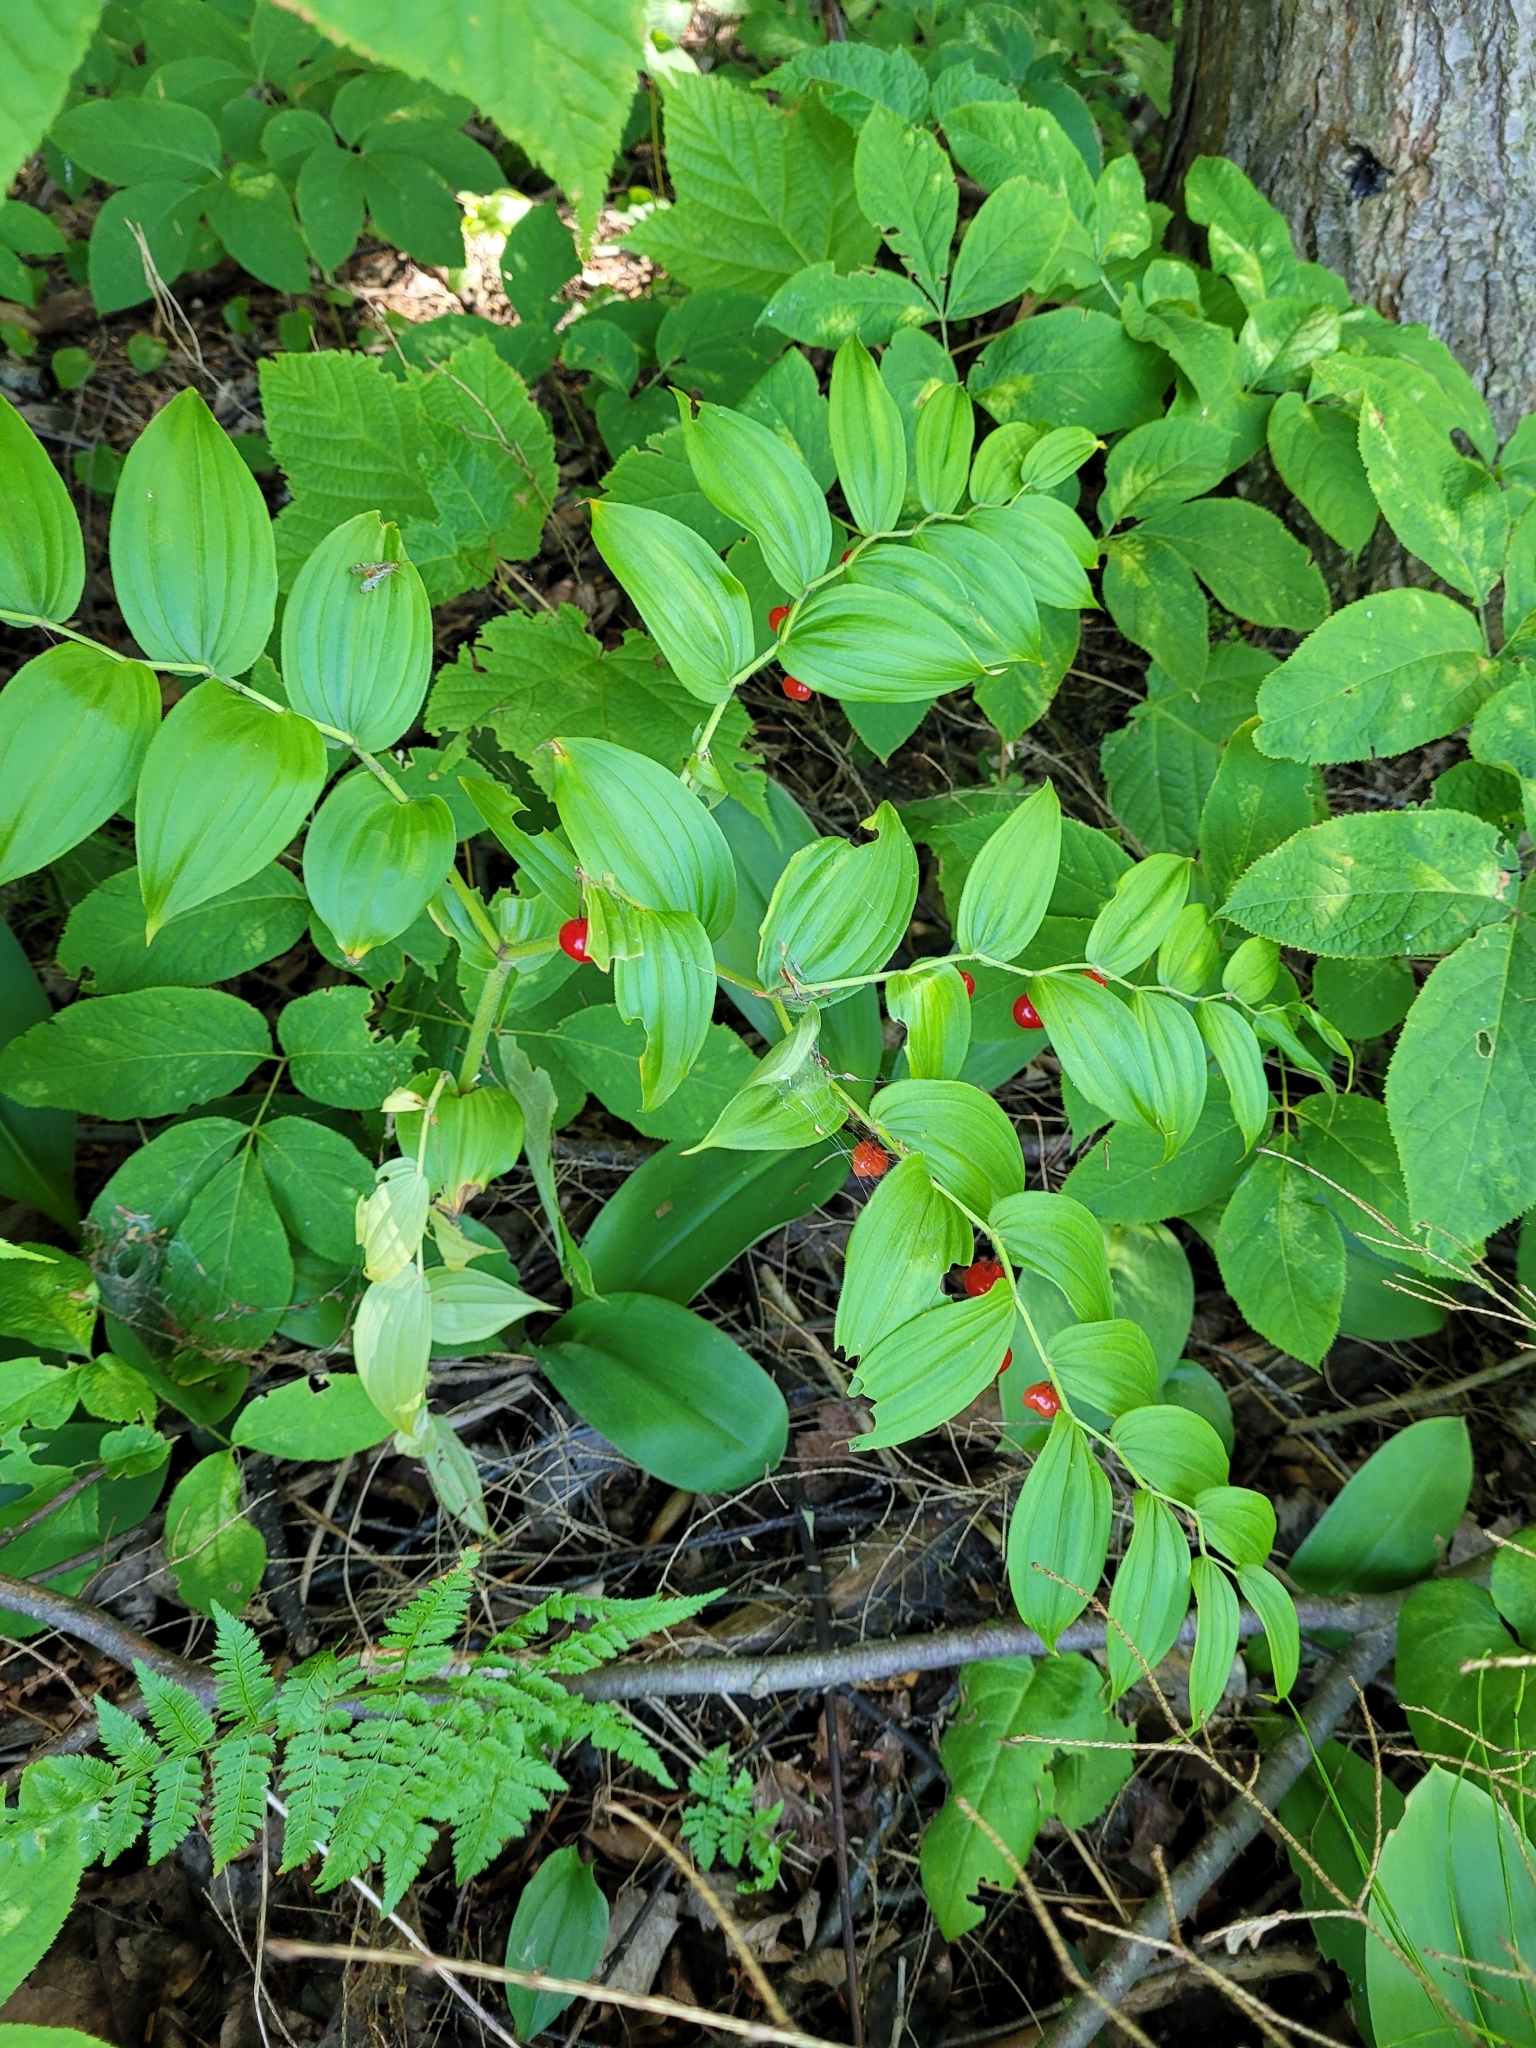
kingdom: Plantae
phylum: Tracheophyta
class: Liliopsida
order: Liliales
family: Liliaceae
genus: Streptopus
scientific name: Streptopus lanceolatus
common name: Rose mandarin
